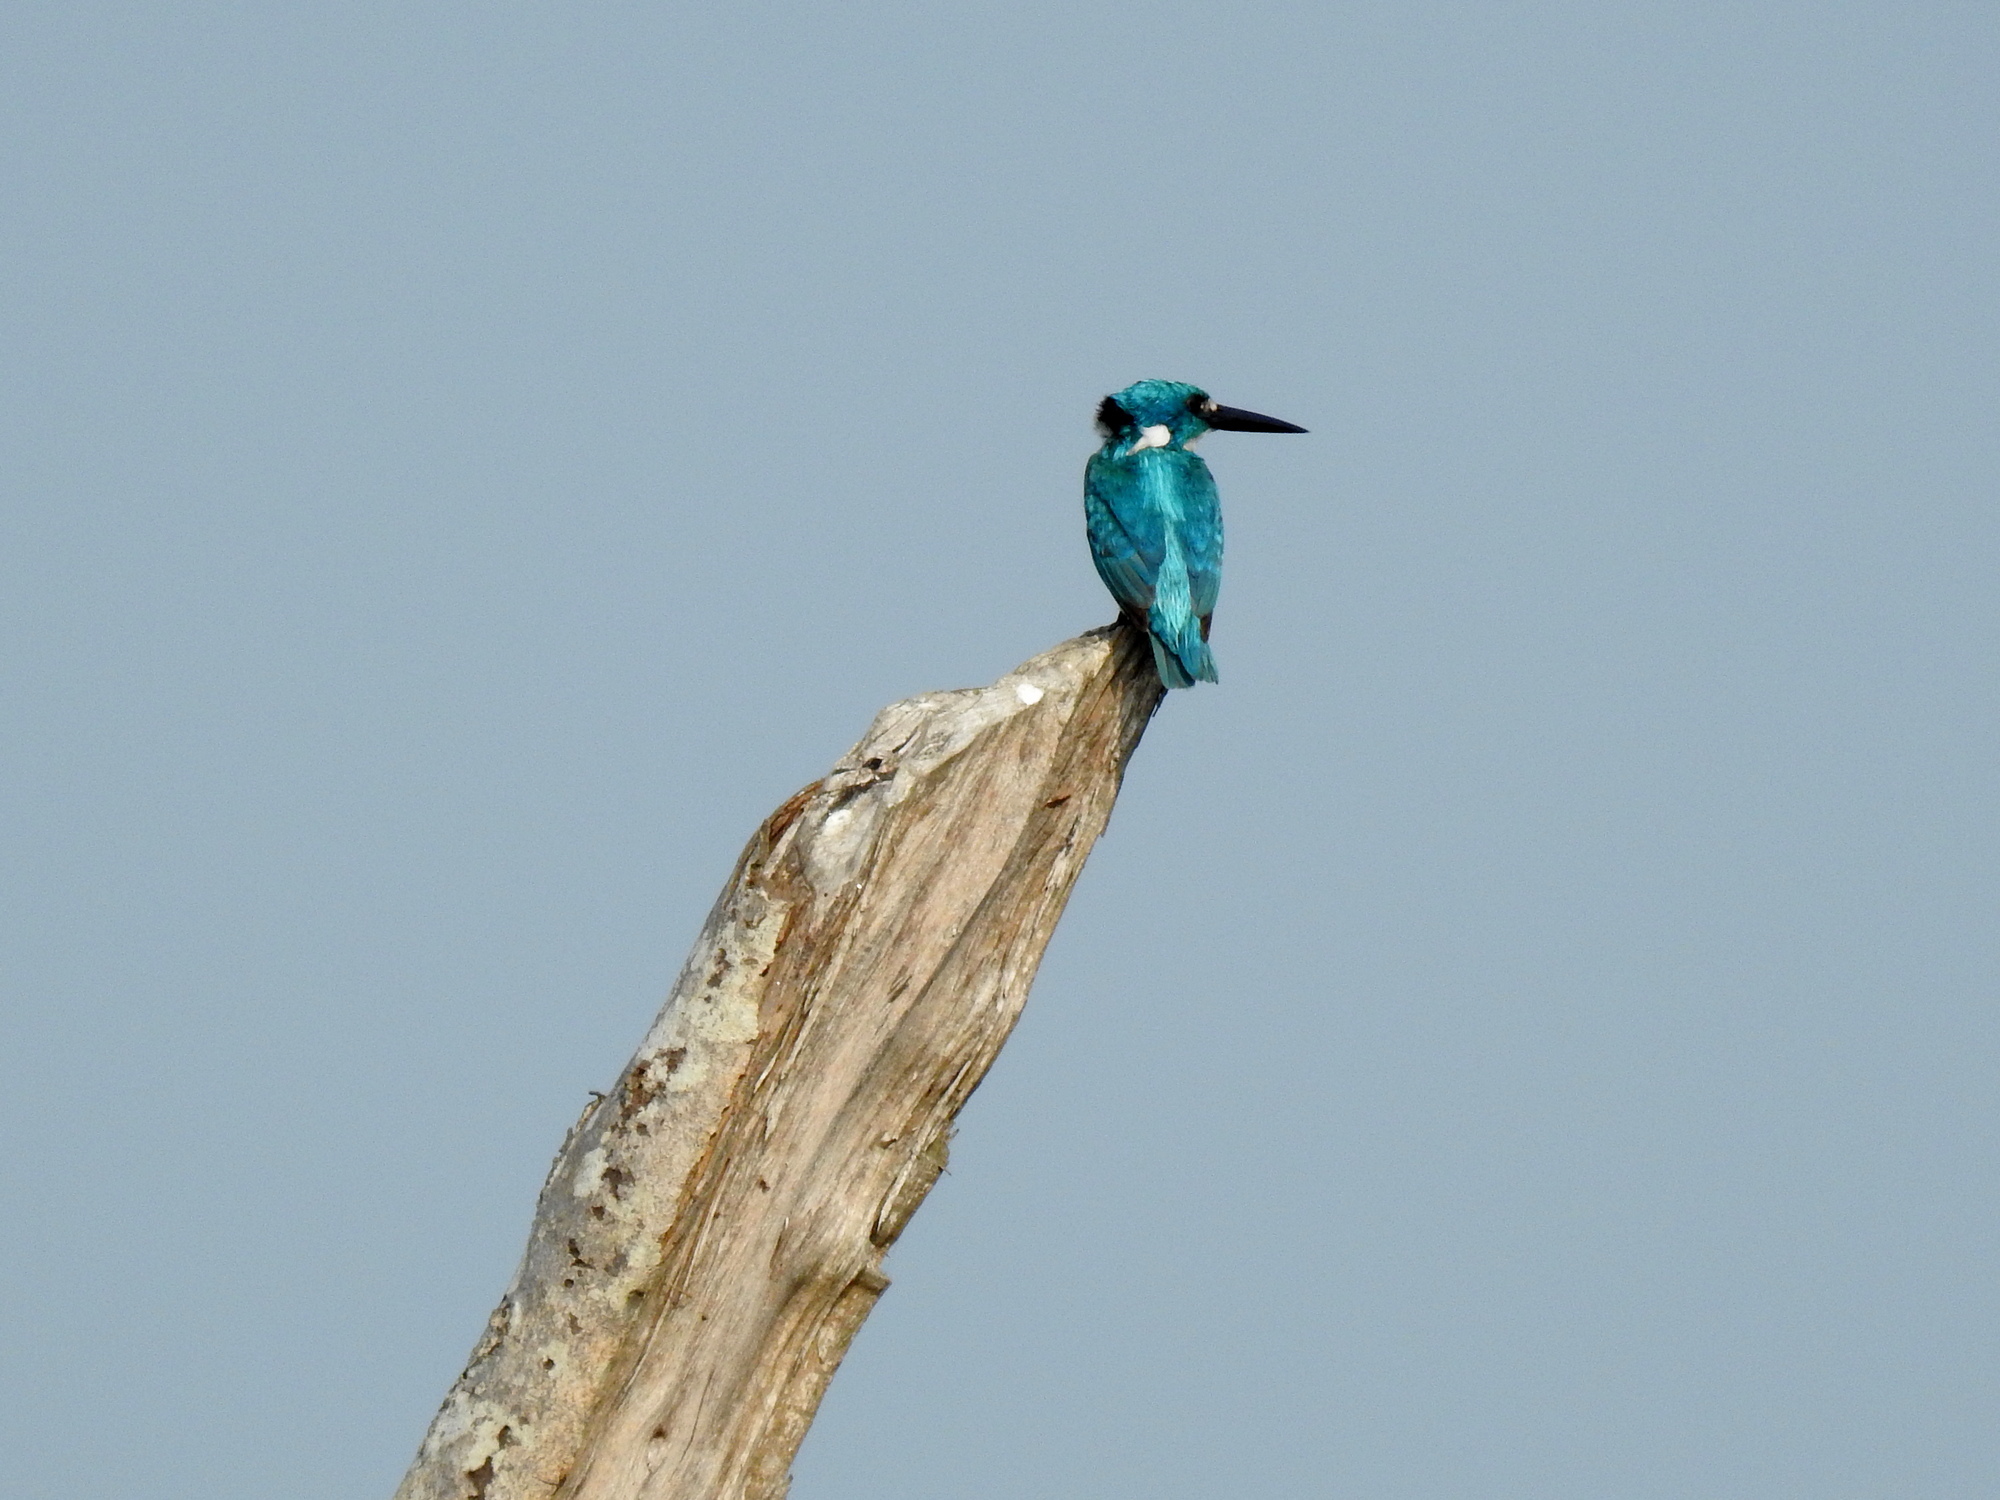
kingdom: Animalia
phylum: Chordata
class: Aves
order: Coraciiformes
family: Alcedinidae
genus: Alcedo
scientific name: Alcedo coerulescens
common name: Cerulean kingfisher
